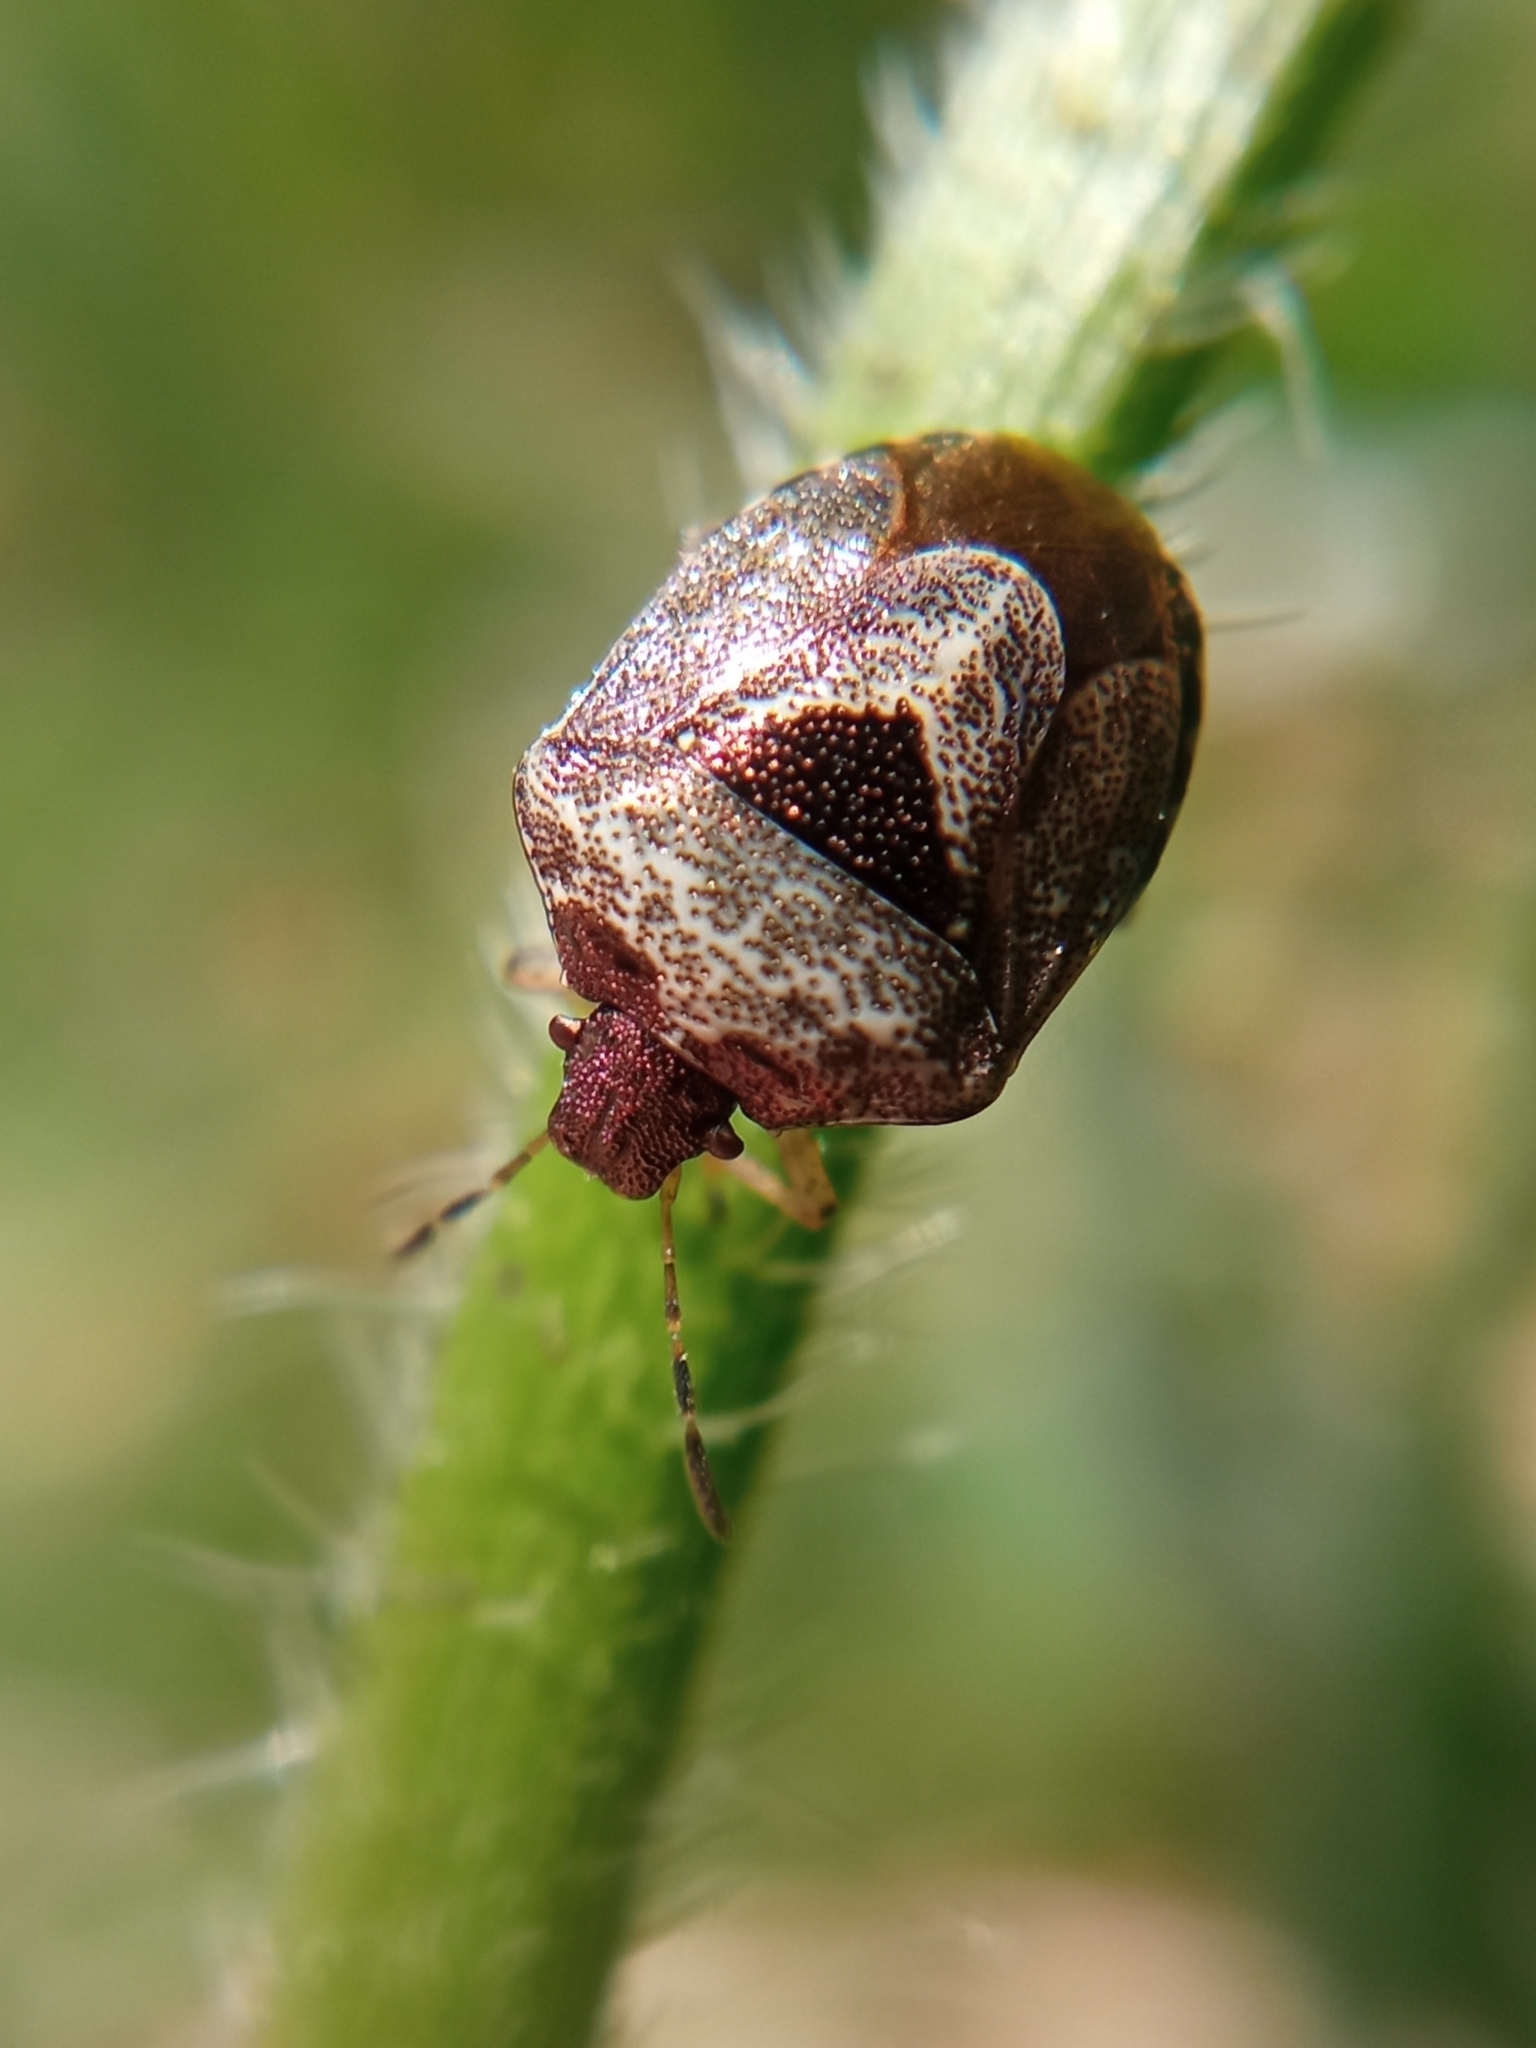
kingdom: Animalia
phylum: Arthropoda
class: Insecta
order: Hemiptera
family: Pentatomidae
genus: Eysarcoris
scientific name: Eysarcoris venustissimus
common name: Woundwort shieldbug
